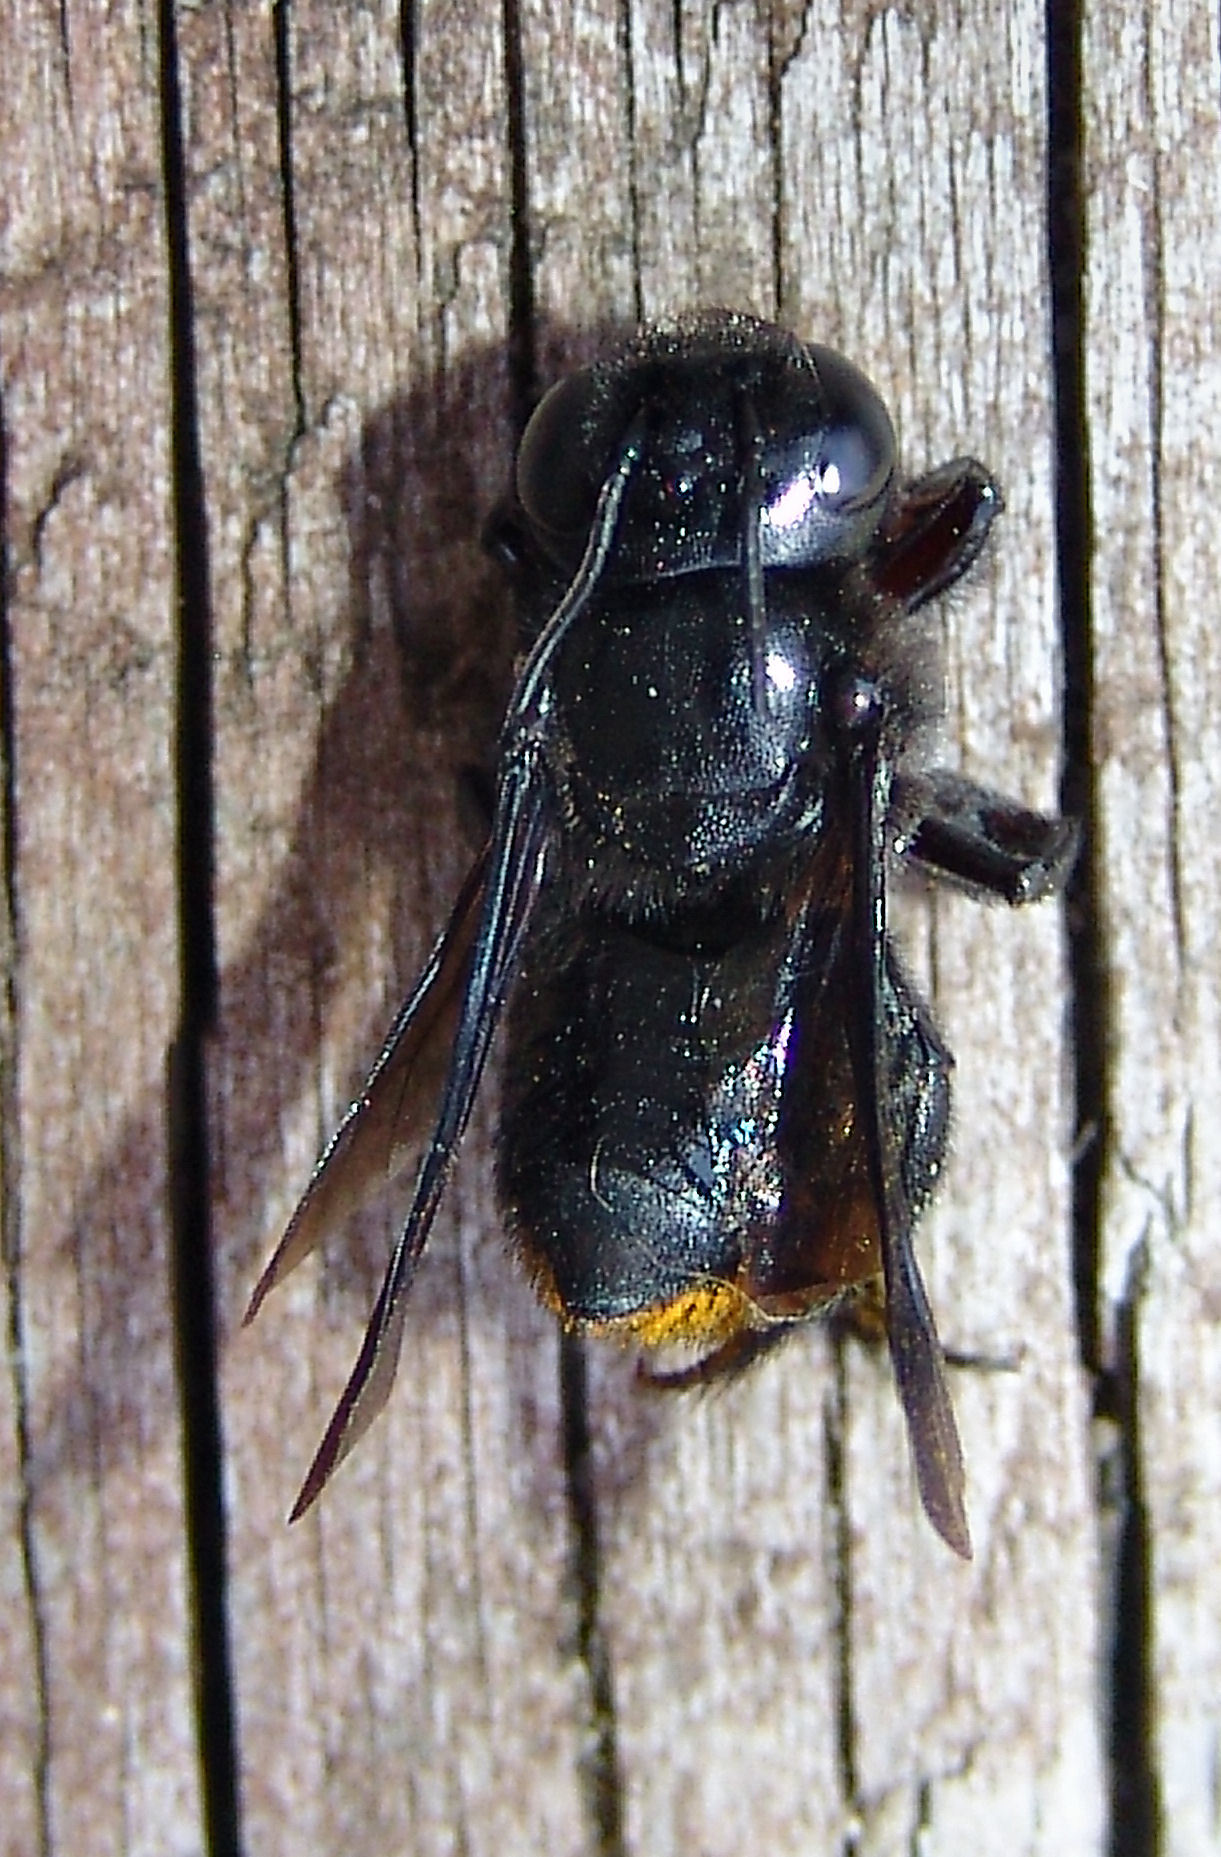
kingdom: Animalia
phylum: Arthropoda
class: Insecta
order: Hymenoptera
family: Megachilidae
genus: Megachile
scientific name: Megachile xylocopoides
